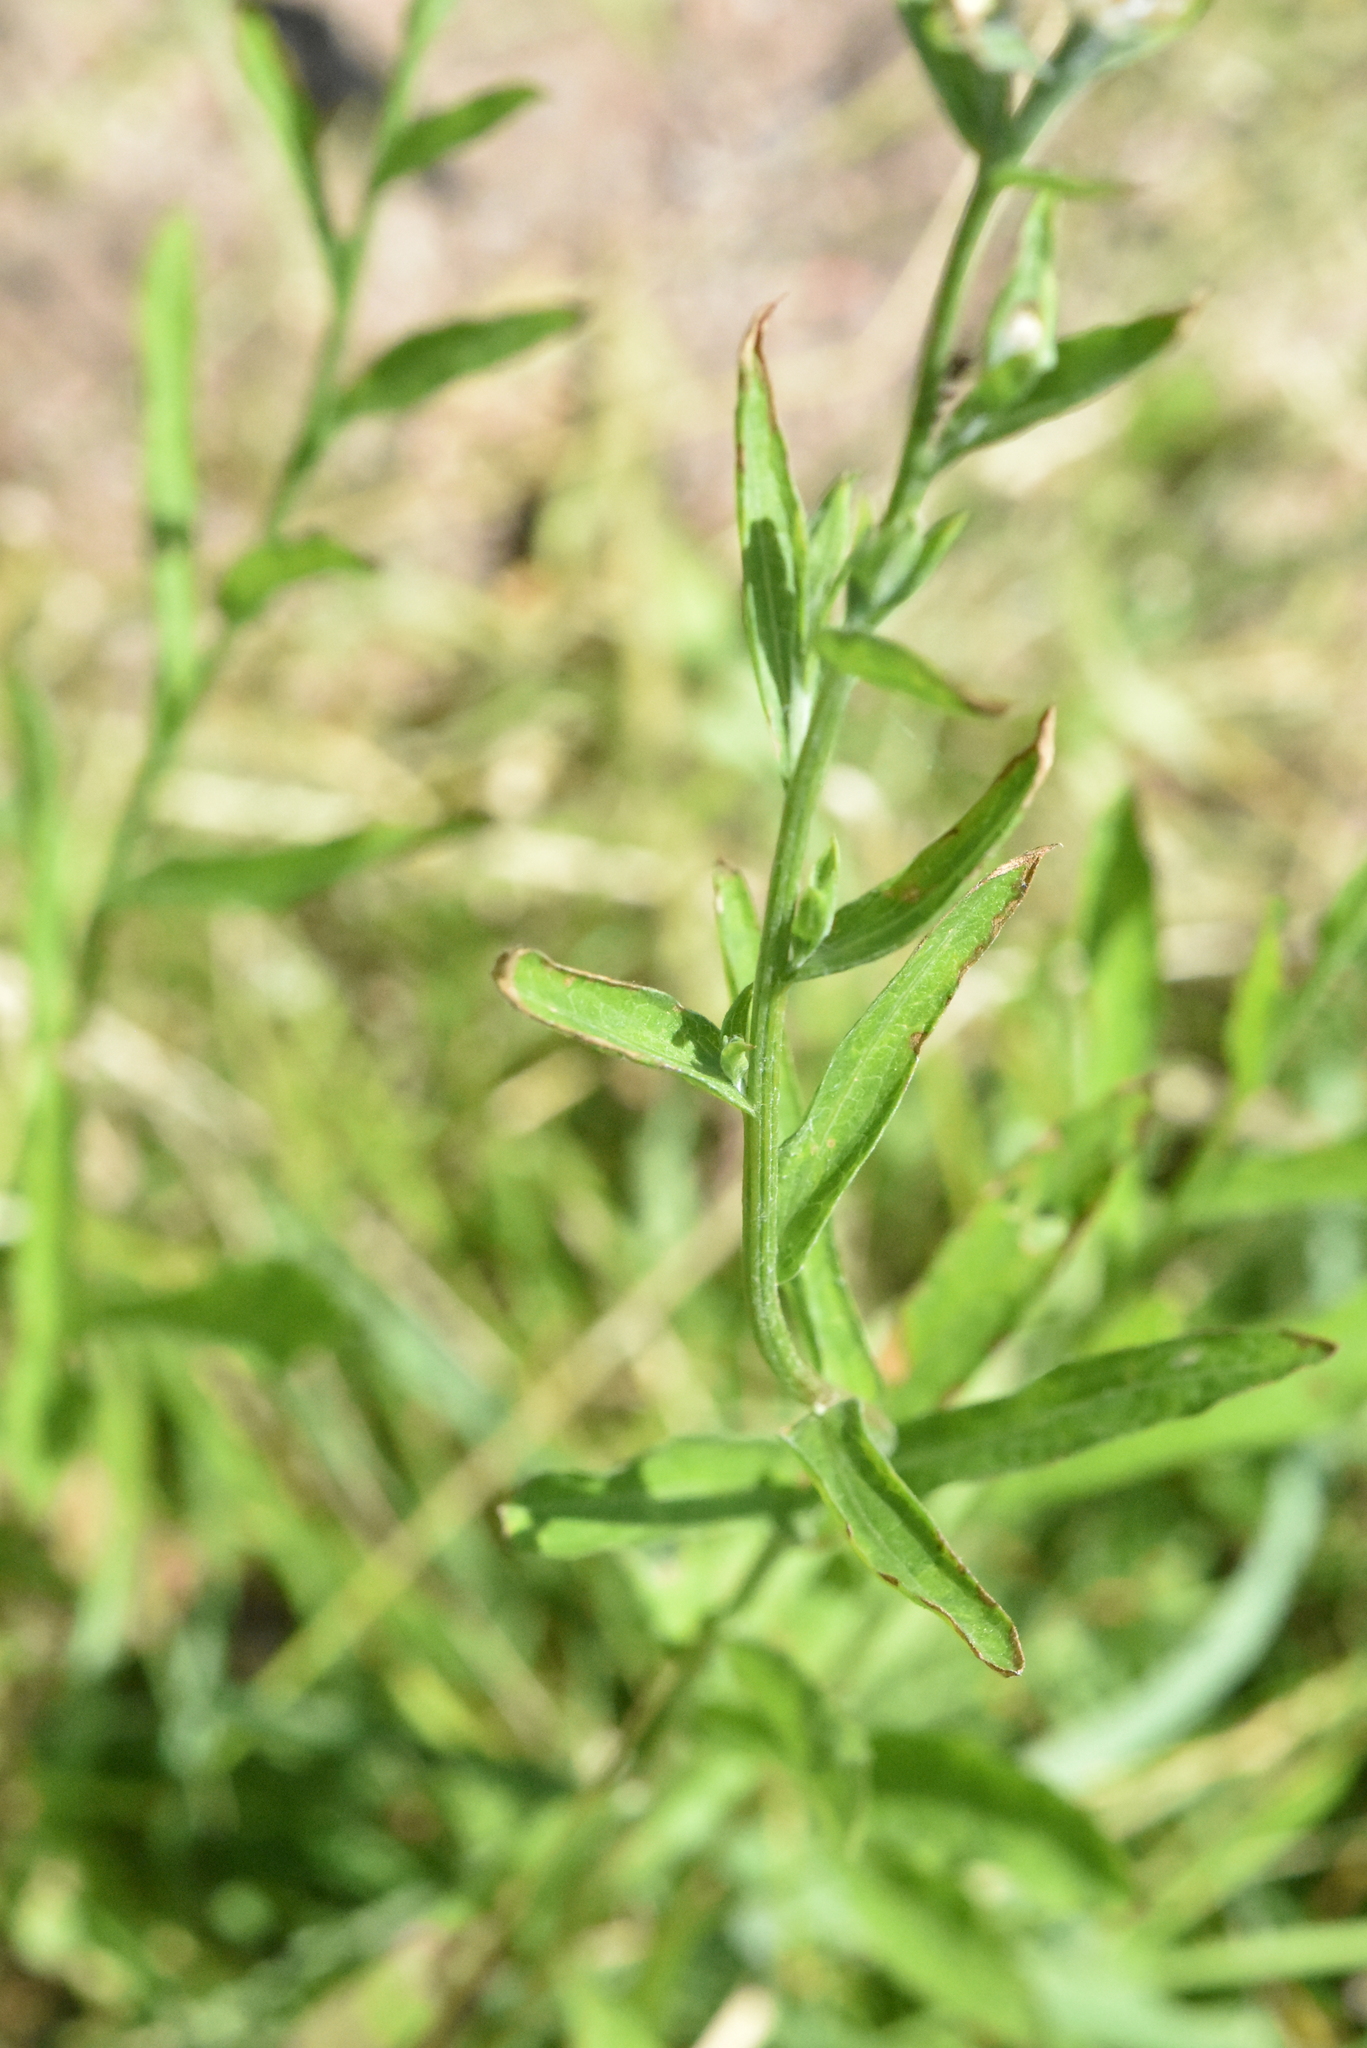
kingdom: Plantae
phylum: Tracheophyta
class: Magnoliopsida
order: Asterales
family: Asteraceae
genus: Centaurea
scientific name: Centaurea jacea
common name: Brown knapweed
